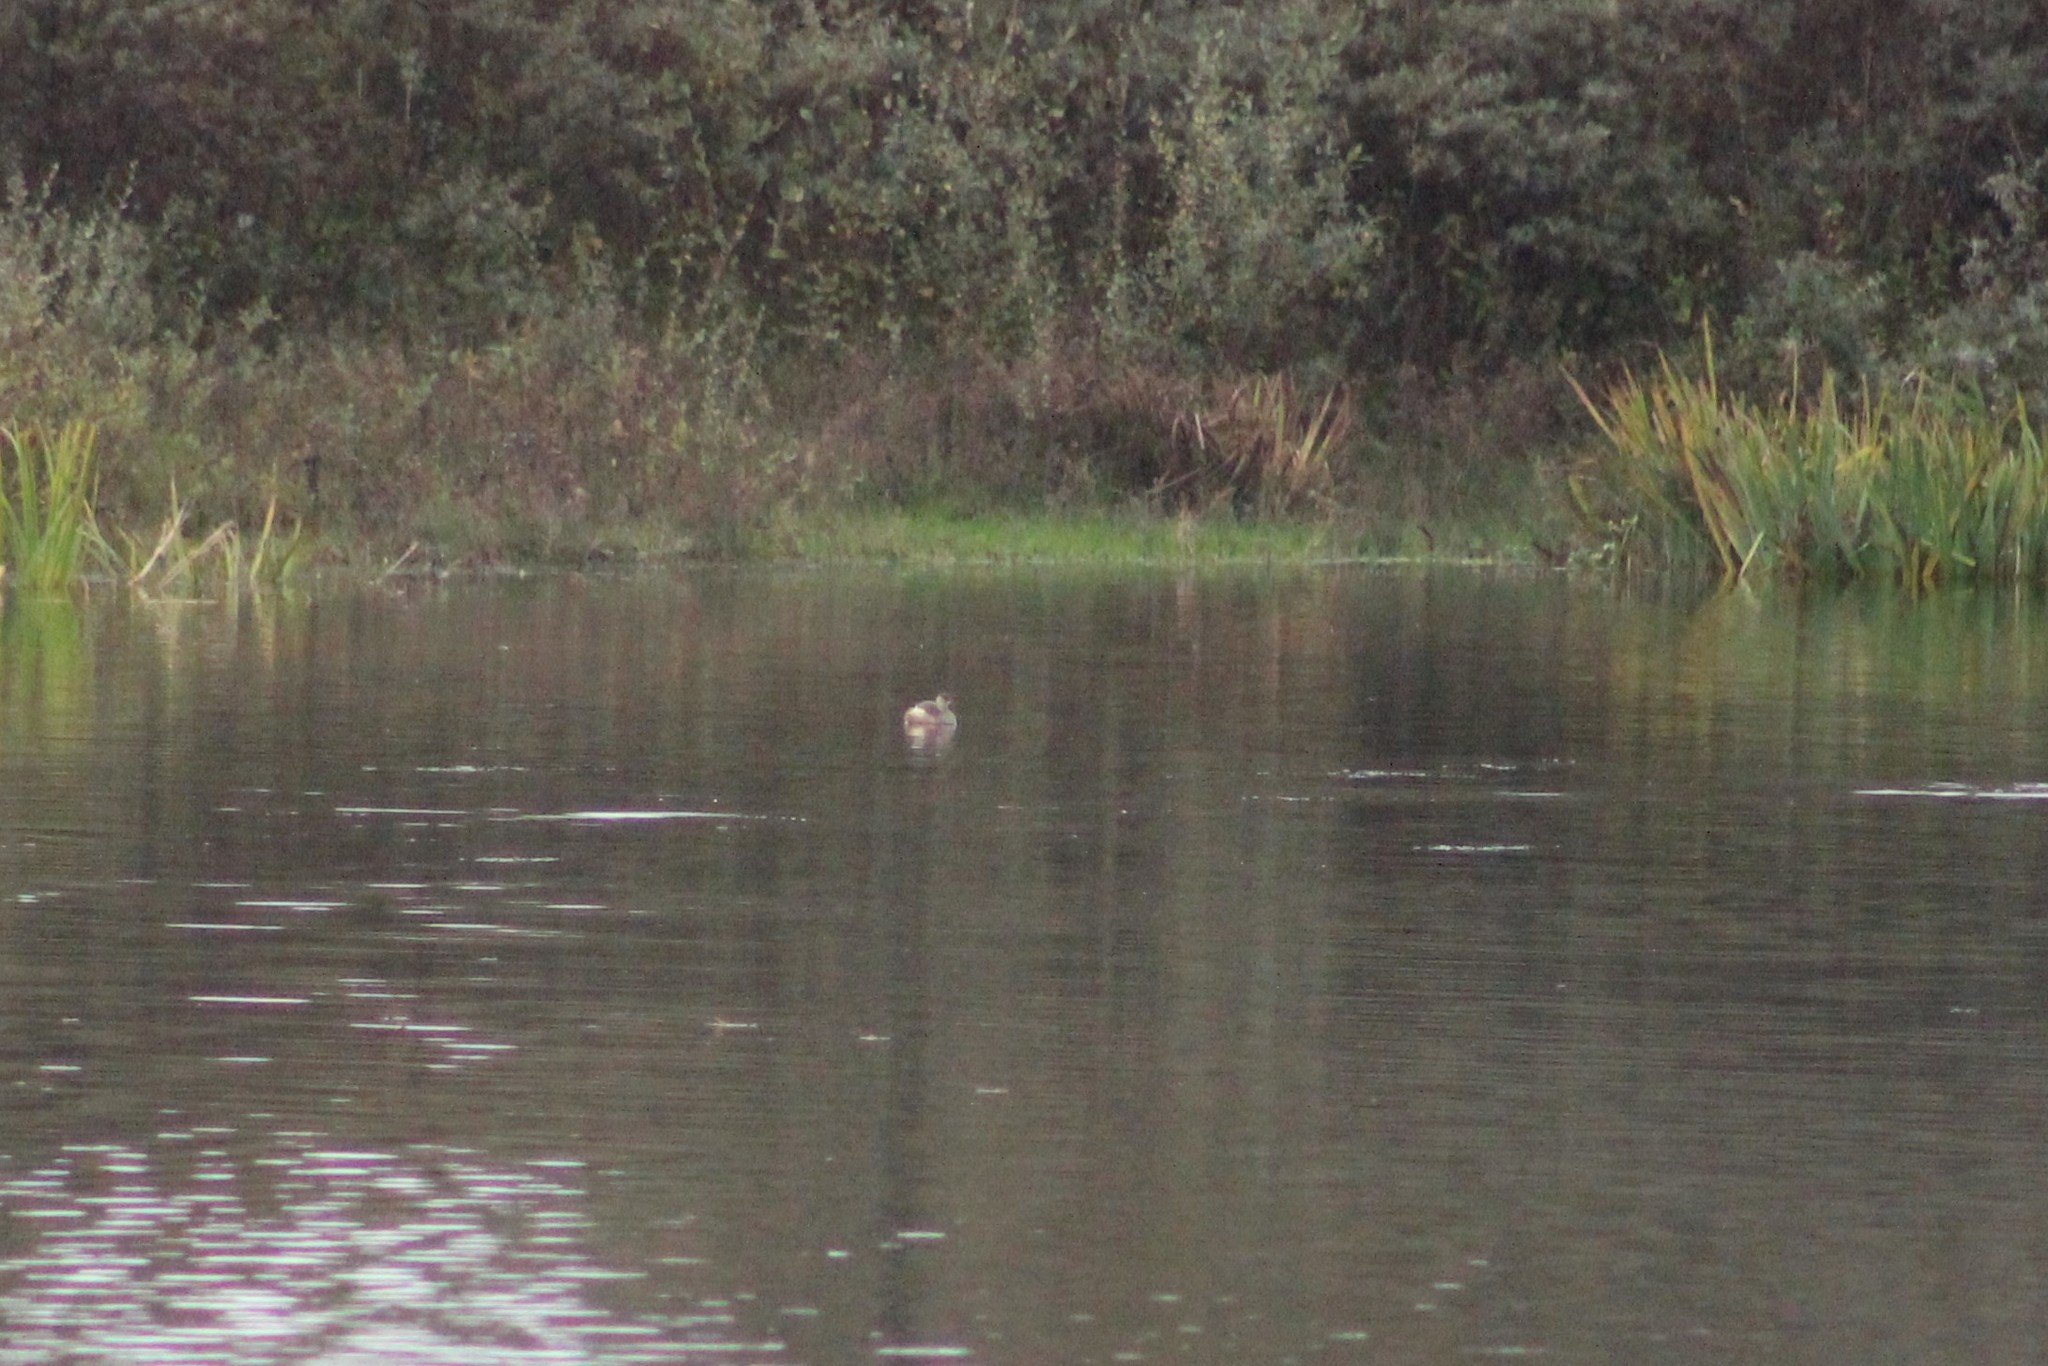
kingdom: Animalia
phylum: Chordata
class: Aves
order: Podicipediformes
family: Podicipedidae
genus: Tachybaptus
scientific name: Tachybaptus ruficollis
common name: Little grebe
